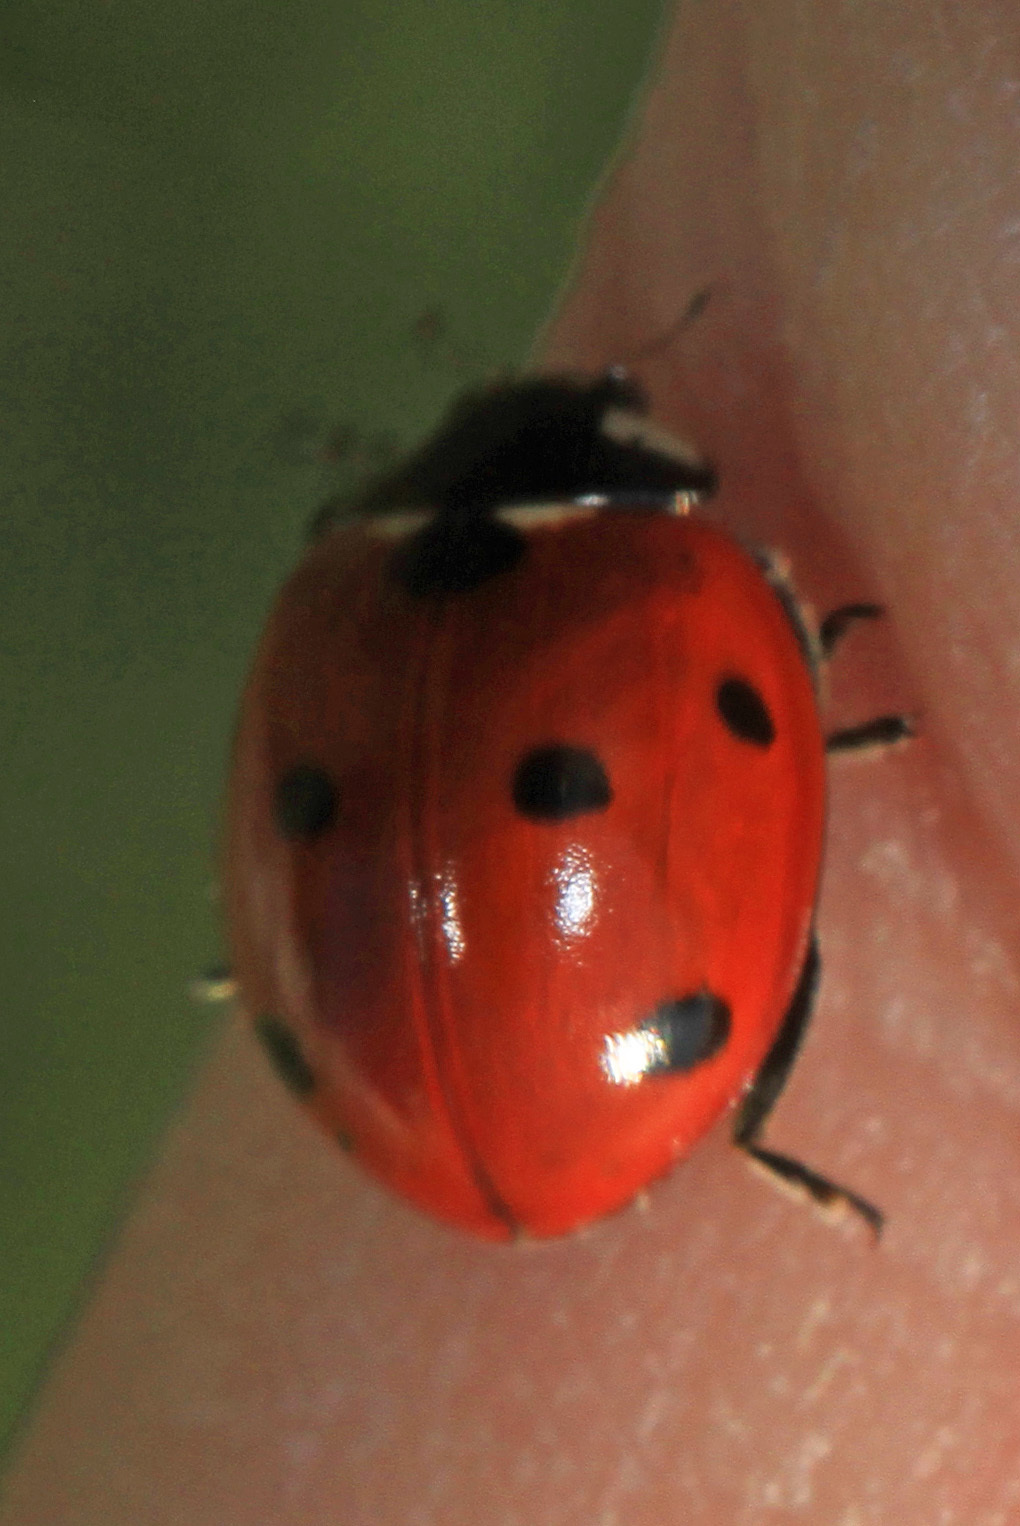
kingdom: Animalia
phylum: Arthropoda
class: Insecta
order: Coleoptera
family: Coccinellidae
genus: Coccinella
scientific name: Coccinella septempunctata
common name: Sevenspotted lady beetle
